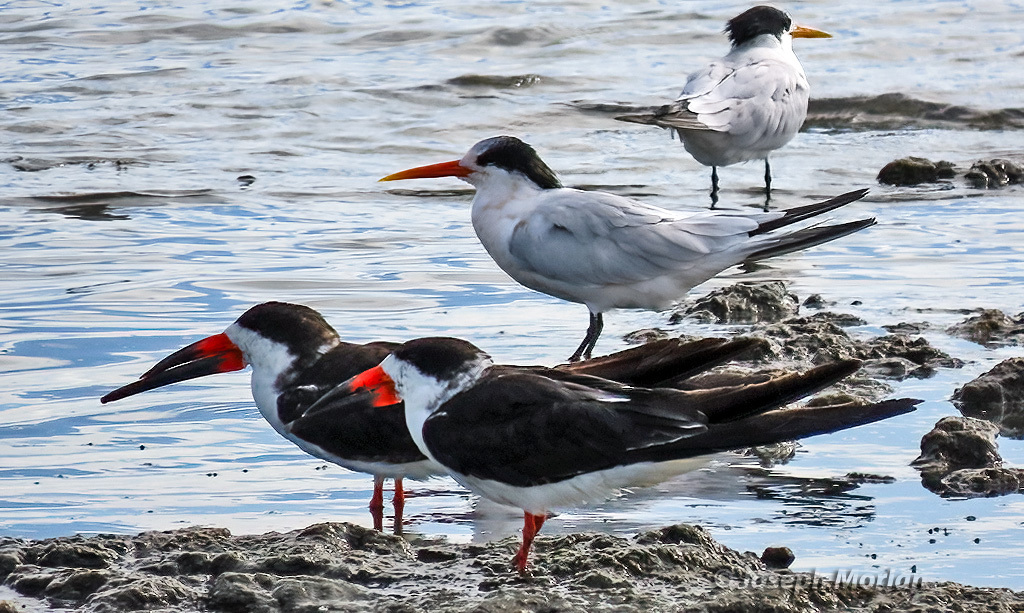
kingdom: Animalia
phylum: Chordata
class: Aves
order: Charadriiformes
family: Laridae
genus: Rynchops
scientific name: Rynchops niger
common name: Black skimmer
